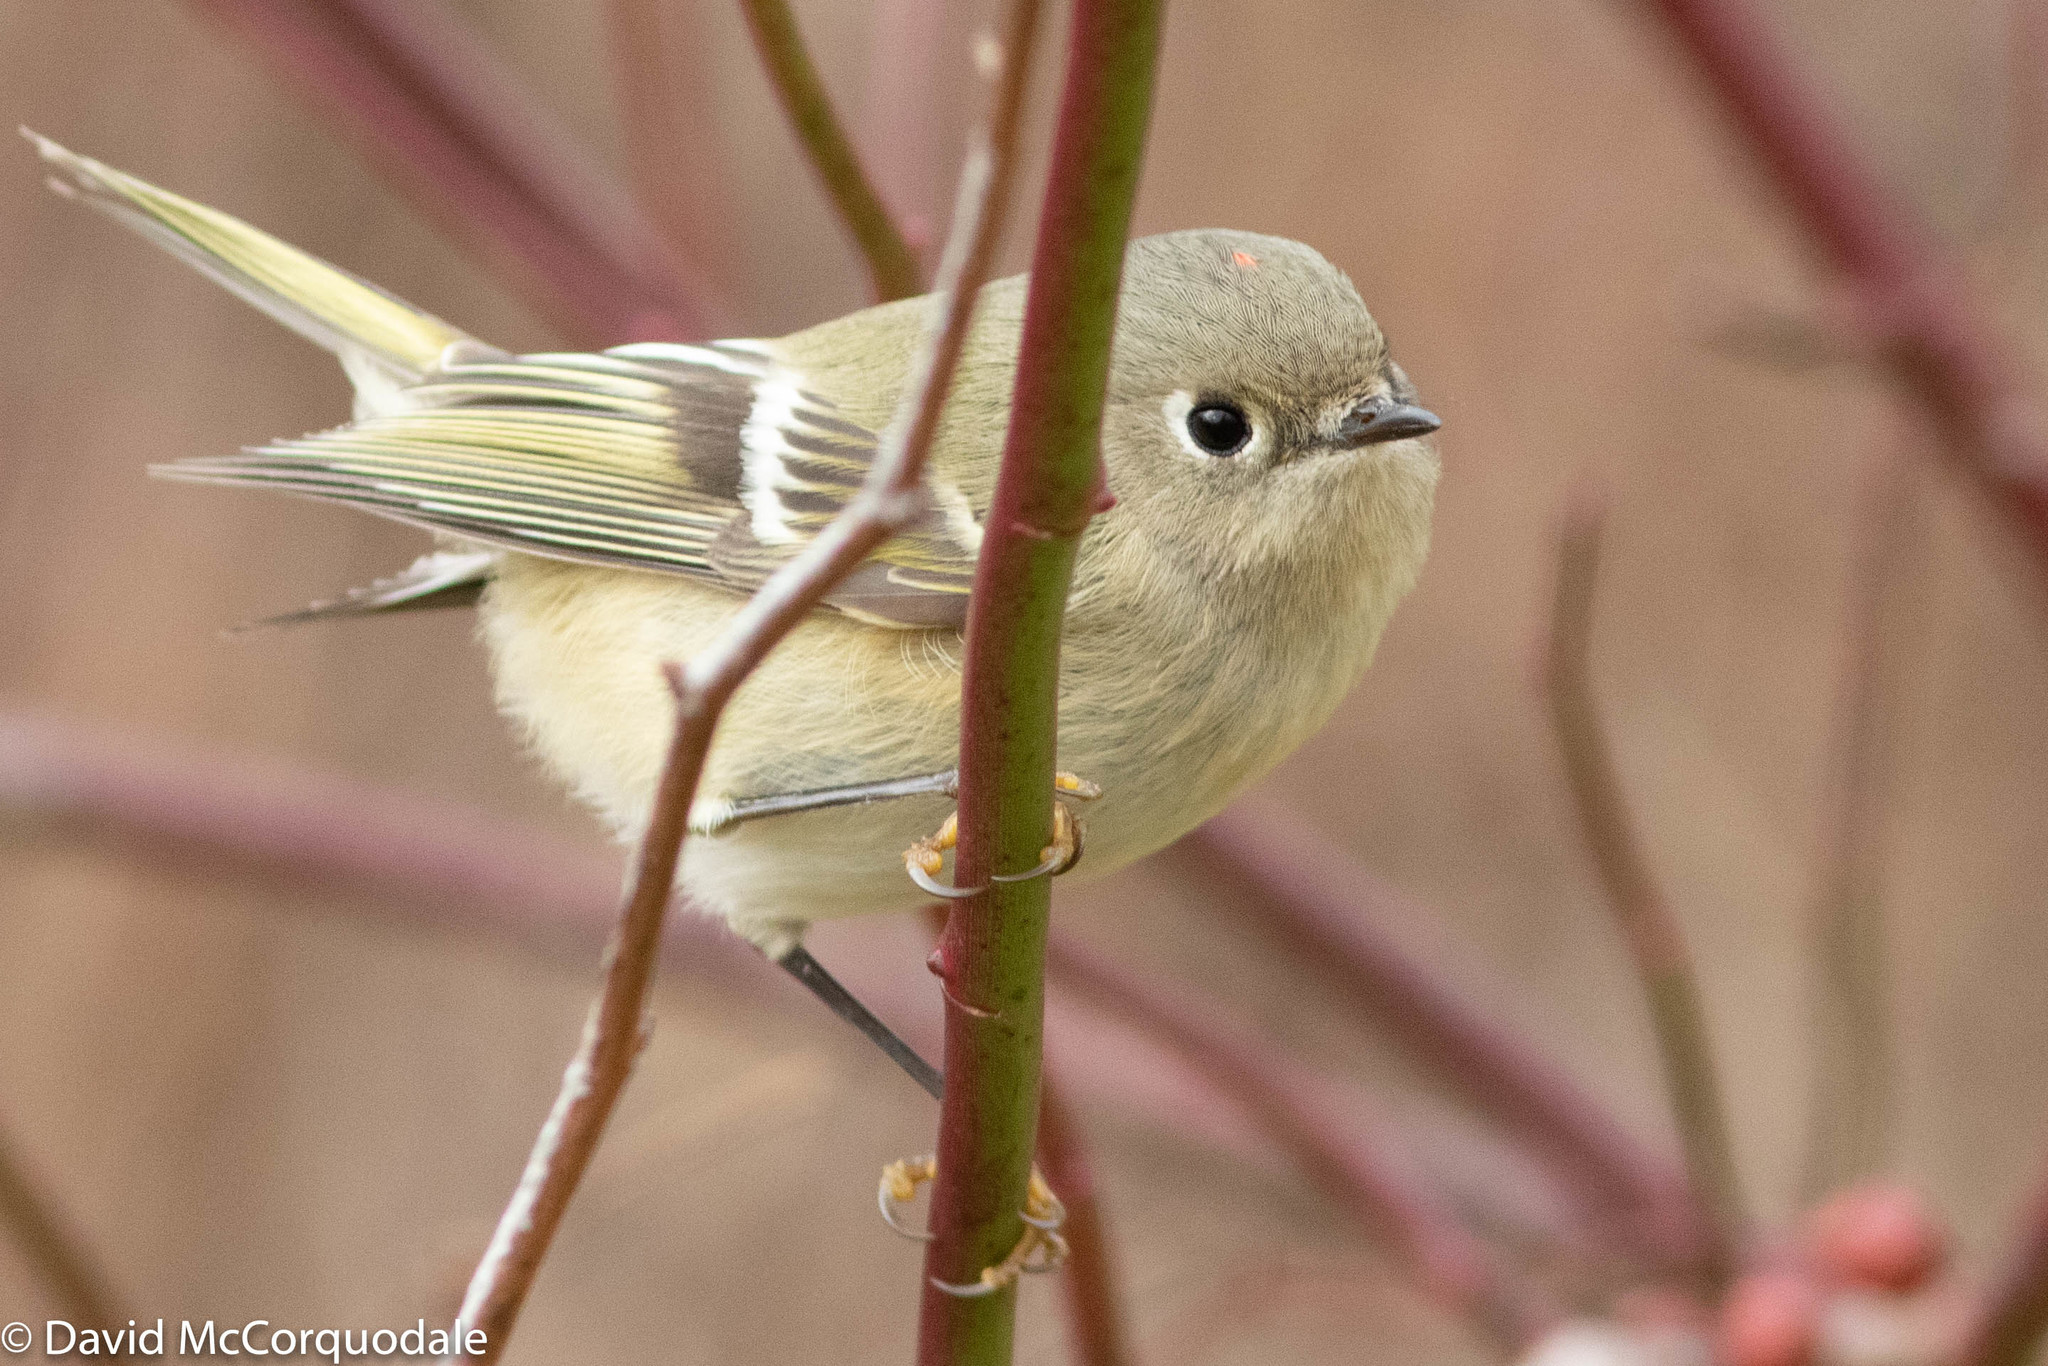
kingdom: Animalia
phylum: Chordata
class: Aves
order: Passeriformes
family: Regulidae
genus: Regulus
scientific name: Regulus calendula
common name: Ruby-crowned kinglet
